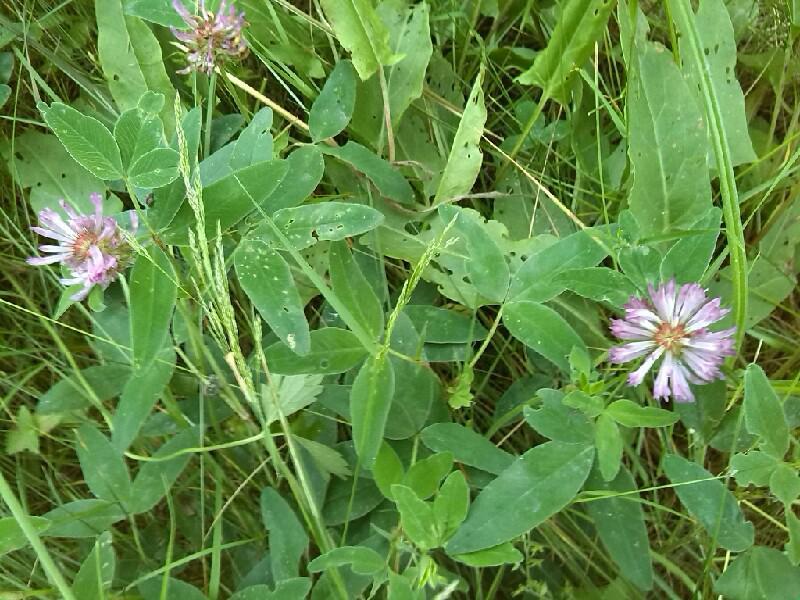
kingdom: Plantae
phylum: Tracheophyta
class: Magnoliopsida
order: Fabales
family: Fabaceae
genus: Trifolium
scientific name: Trifolium medium
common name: Zigzag clover
